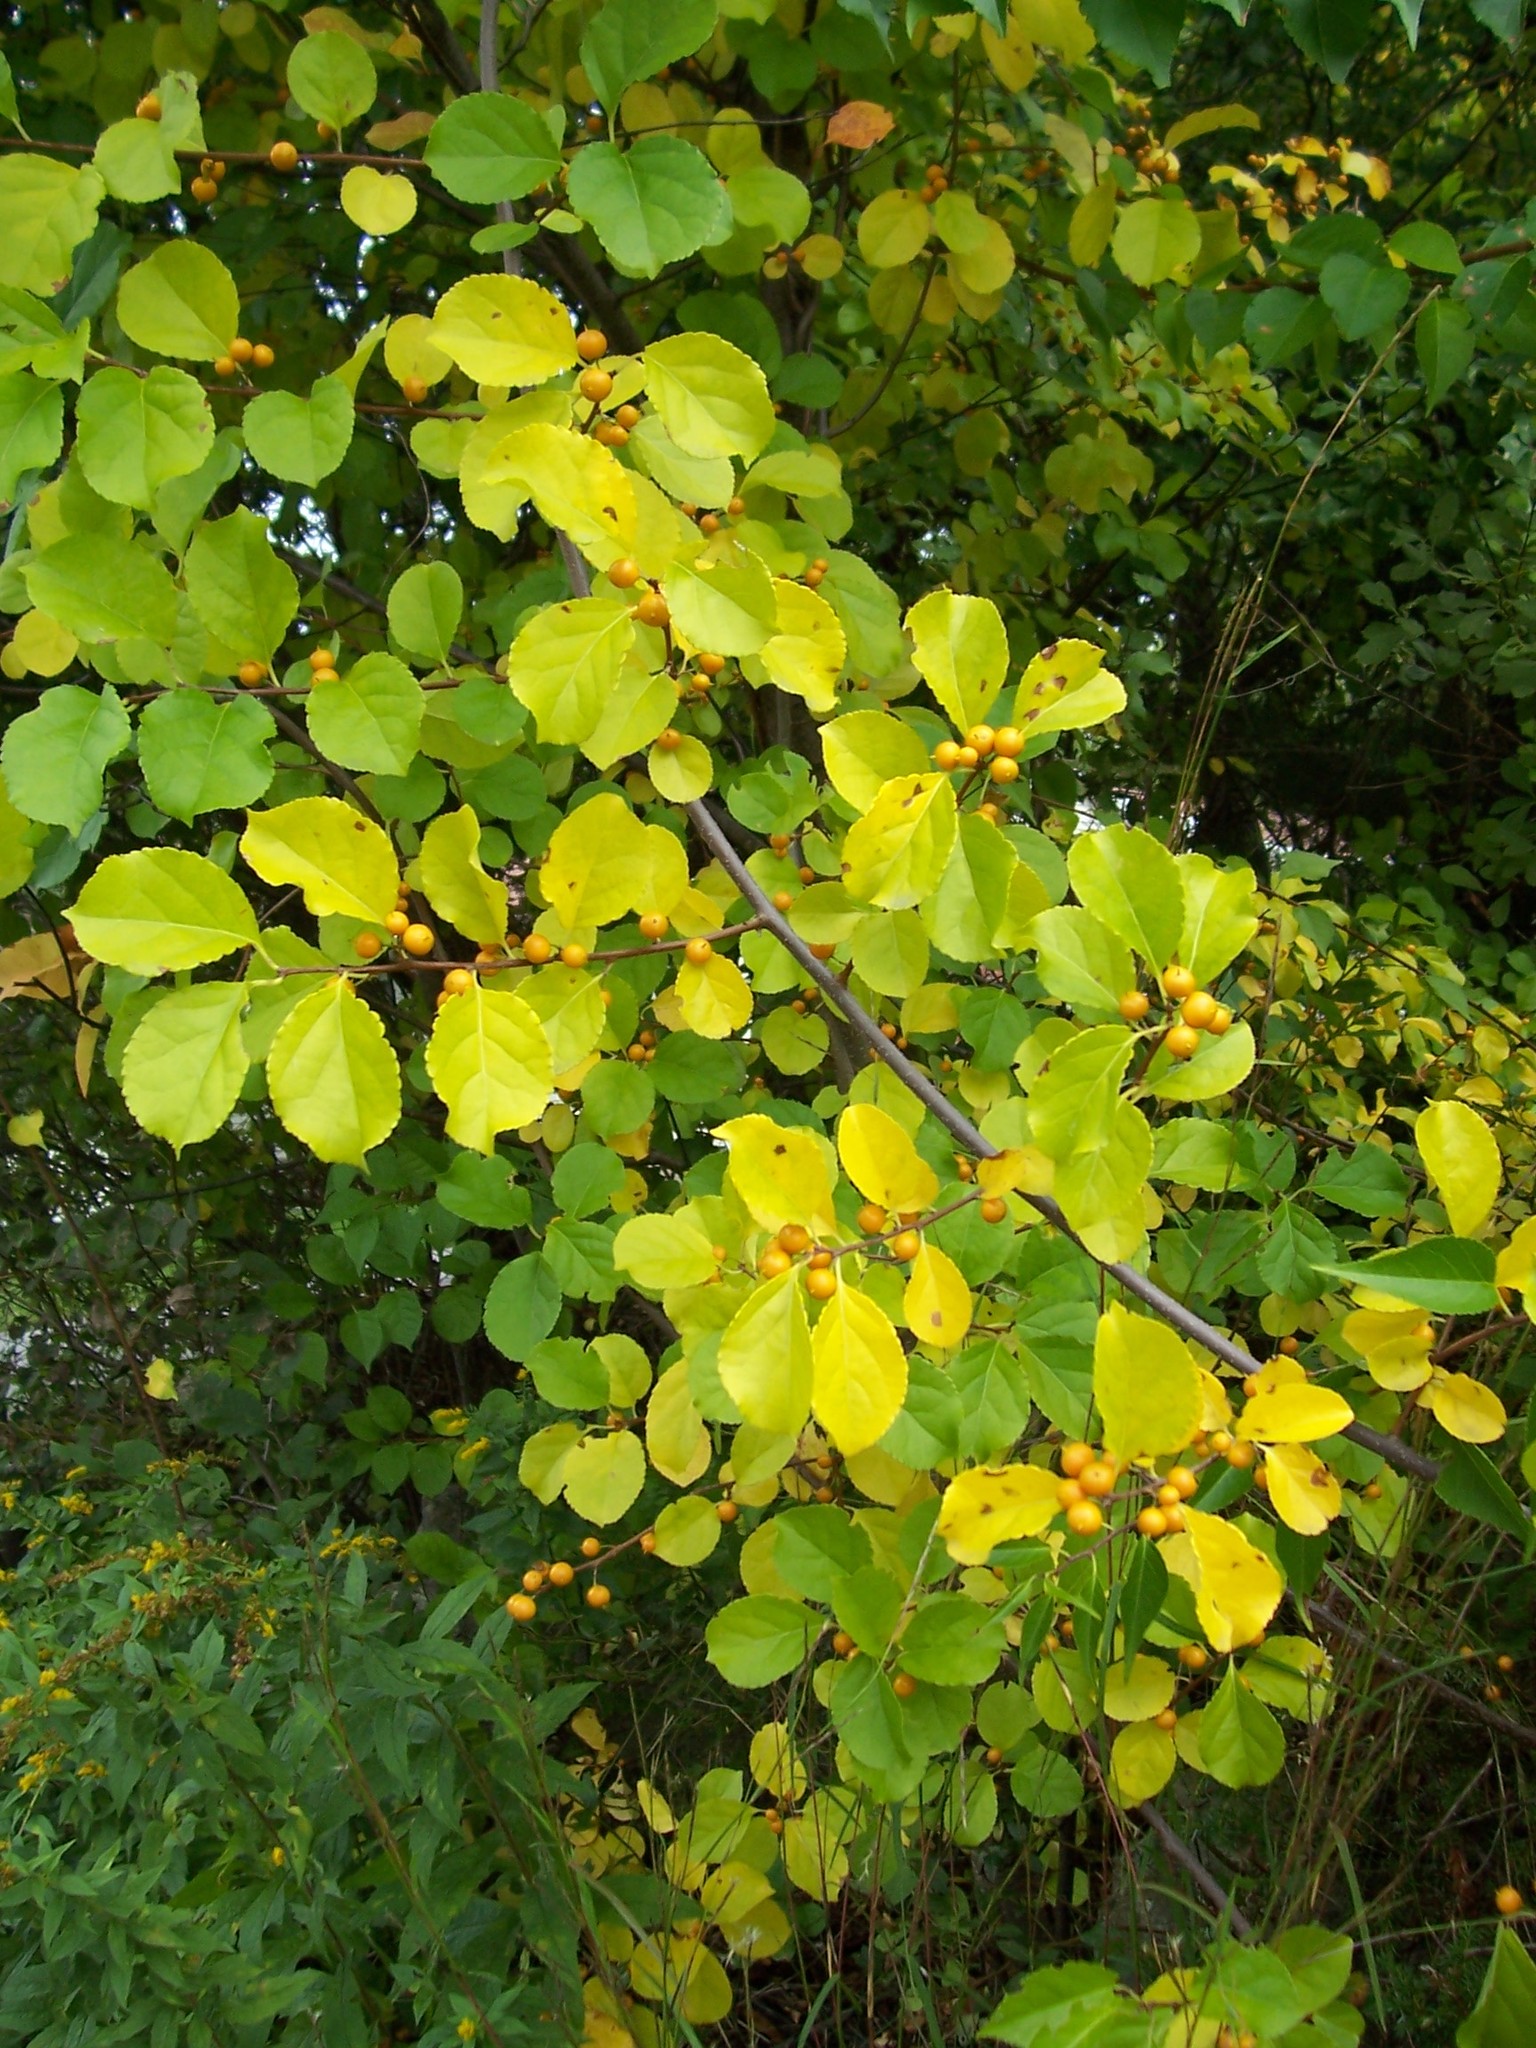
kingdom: Plantae
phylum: Tracheophyta
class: Magnoliopsida
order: Celastrales
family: Celastraceae
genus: Celastrus
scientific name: Celastrus orbiculatus
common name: Oriental bittersweet
